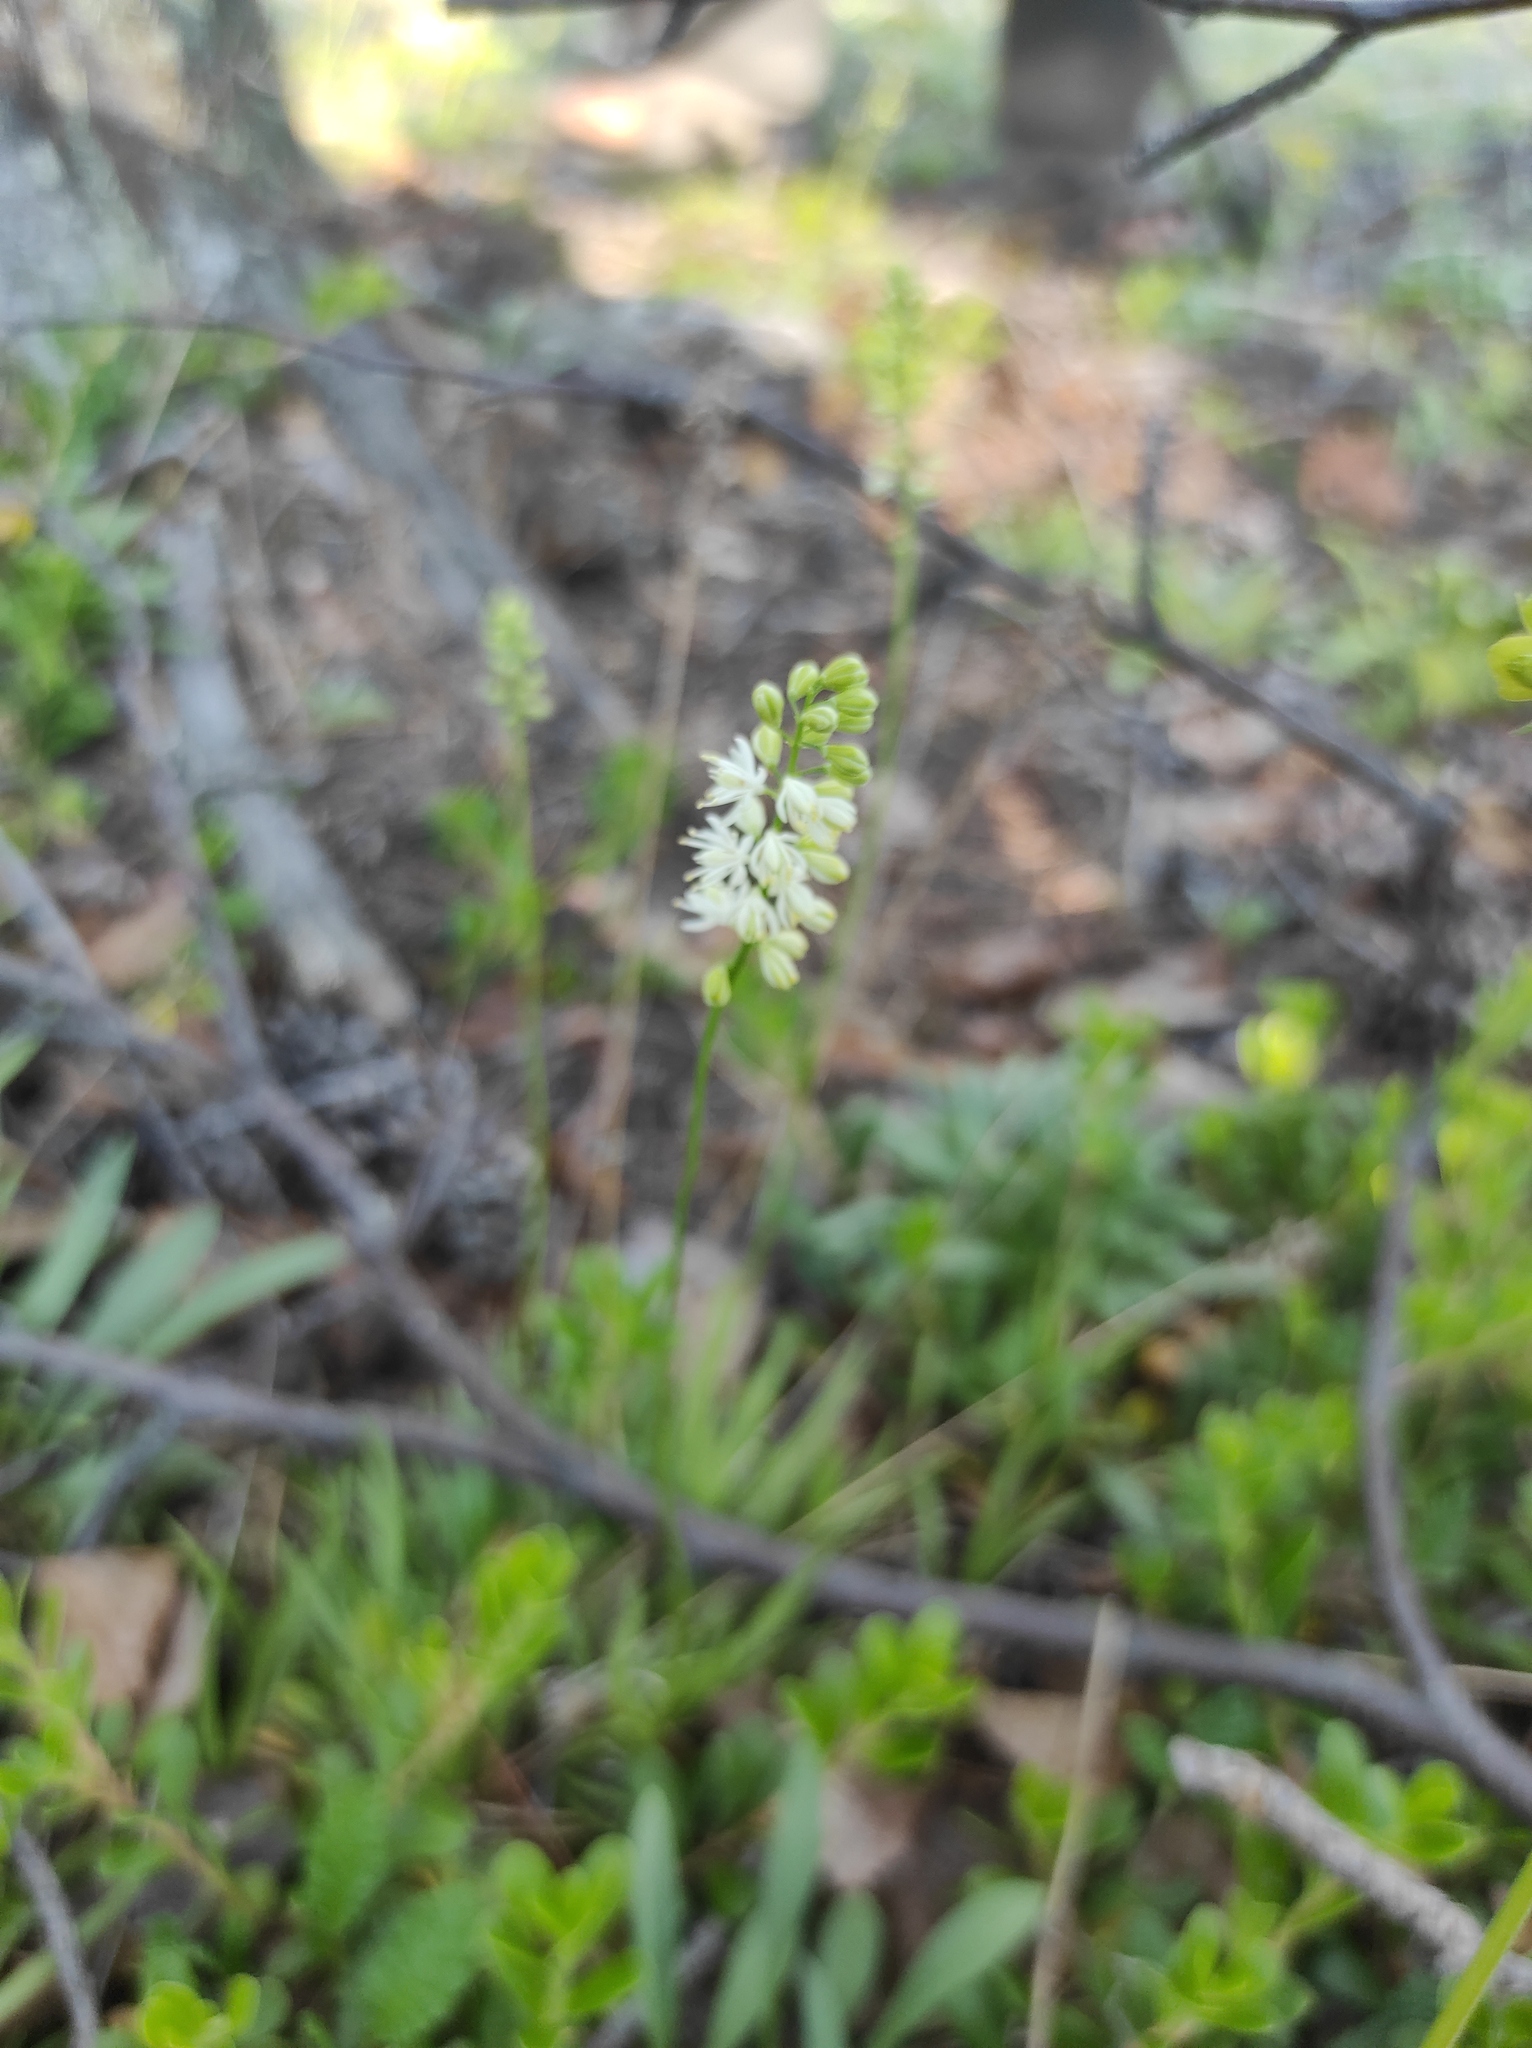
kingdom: Plantae
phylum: Tracheophyta
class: Liliopsida
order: Alismatales
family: Tofieldiaceae
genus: Tofieldia
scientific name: Tofieldia cernua
